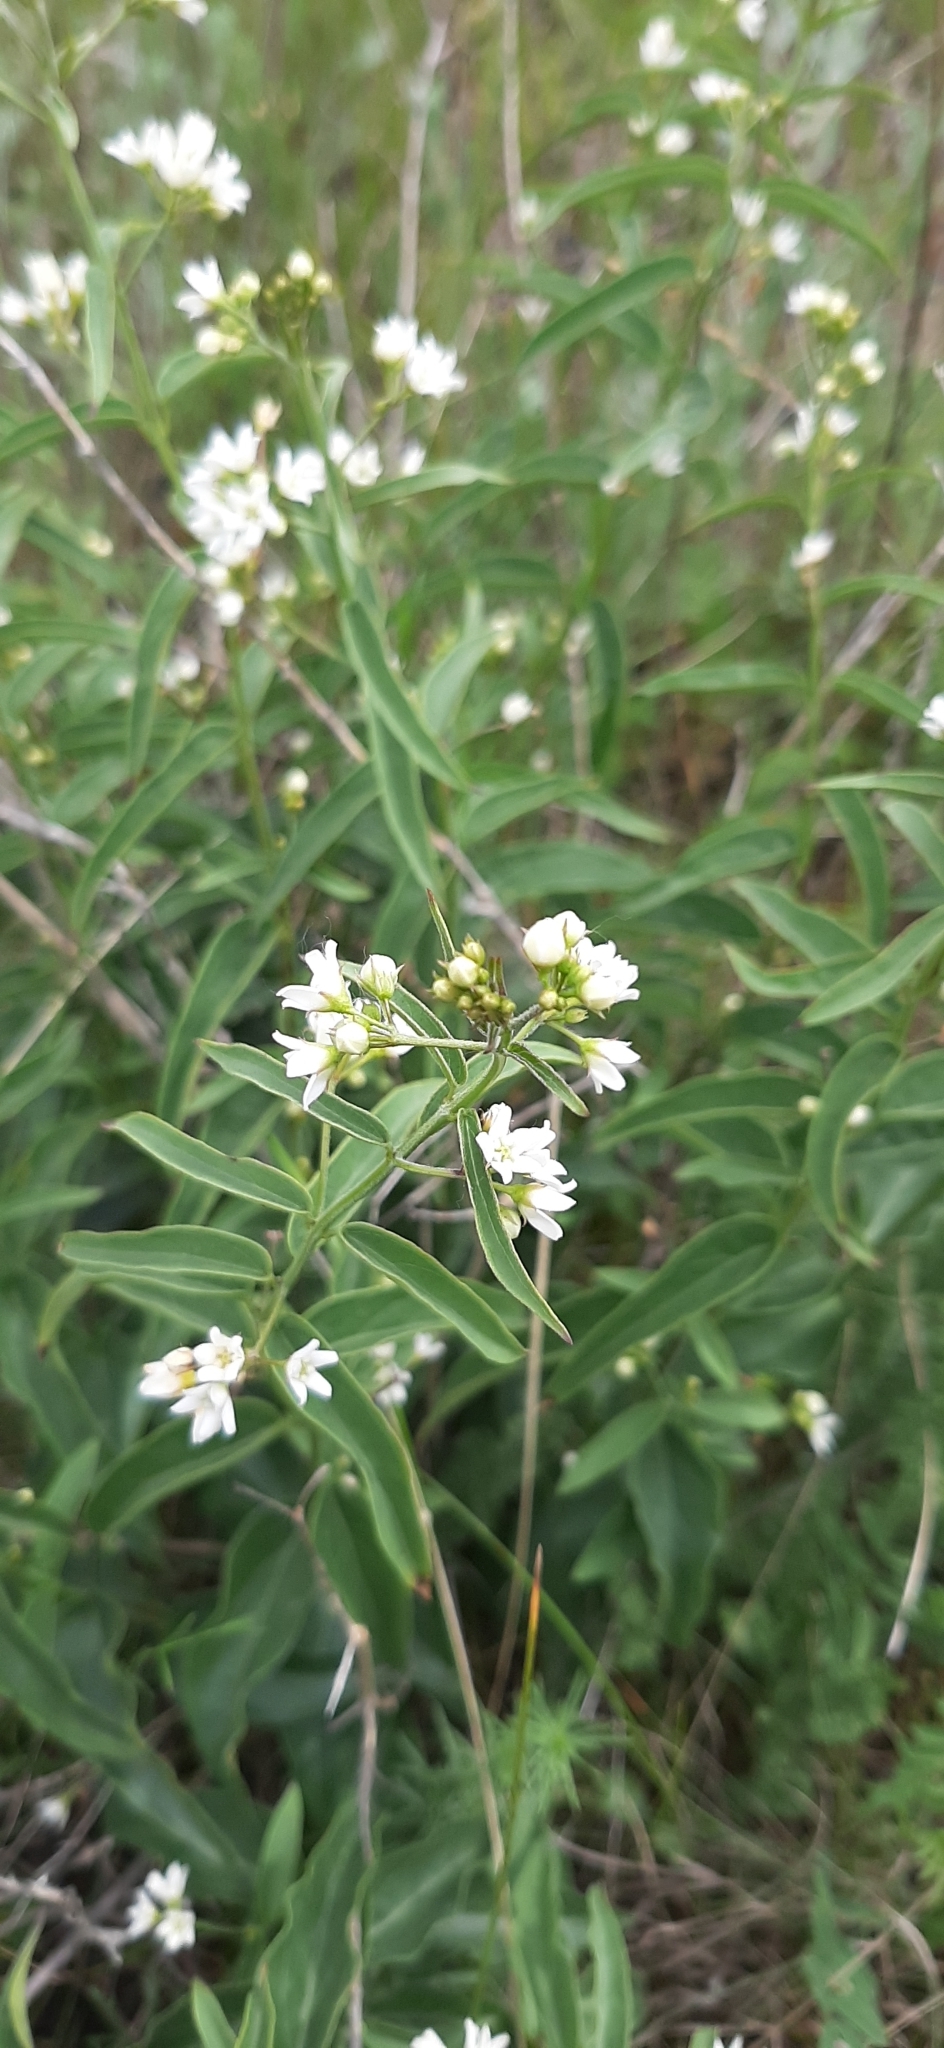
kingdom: Plantae
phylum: Tracheophyta
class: Magnoliopsida
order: Gentianales
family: Apocynaceae
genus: Vincetoxicum
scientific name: Vincetoxicum hirundinaria
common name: White swallowwort
